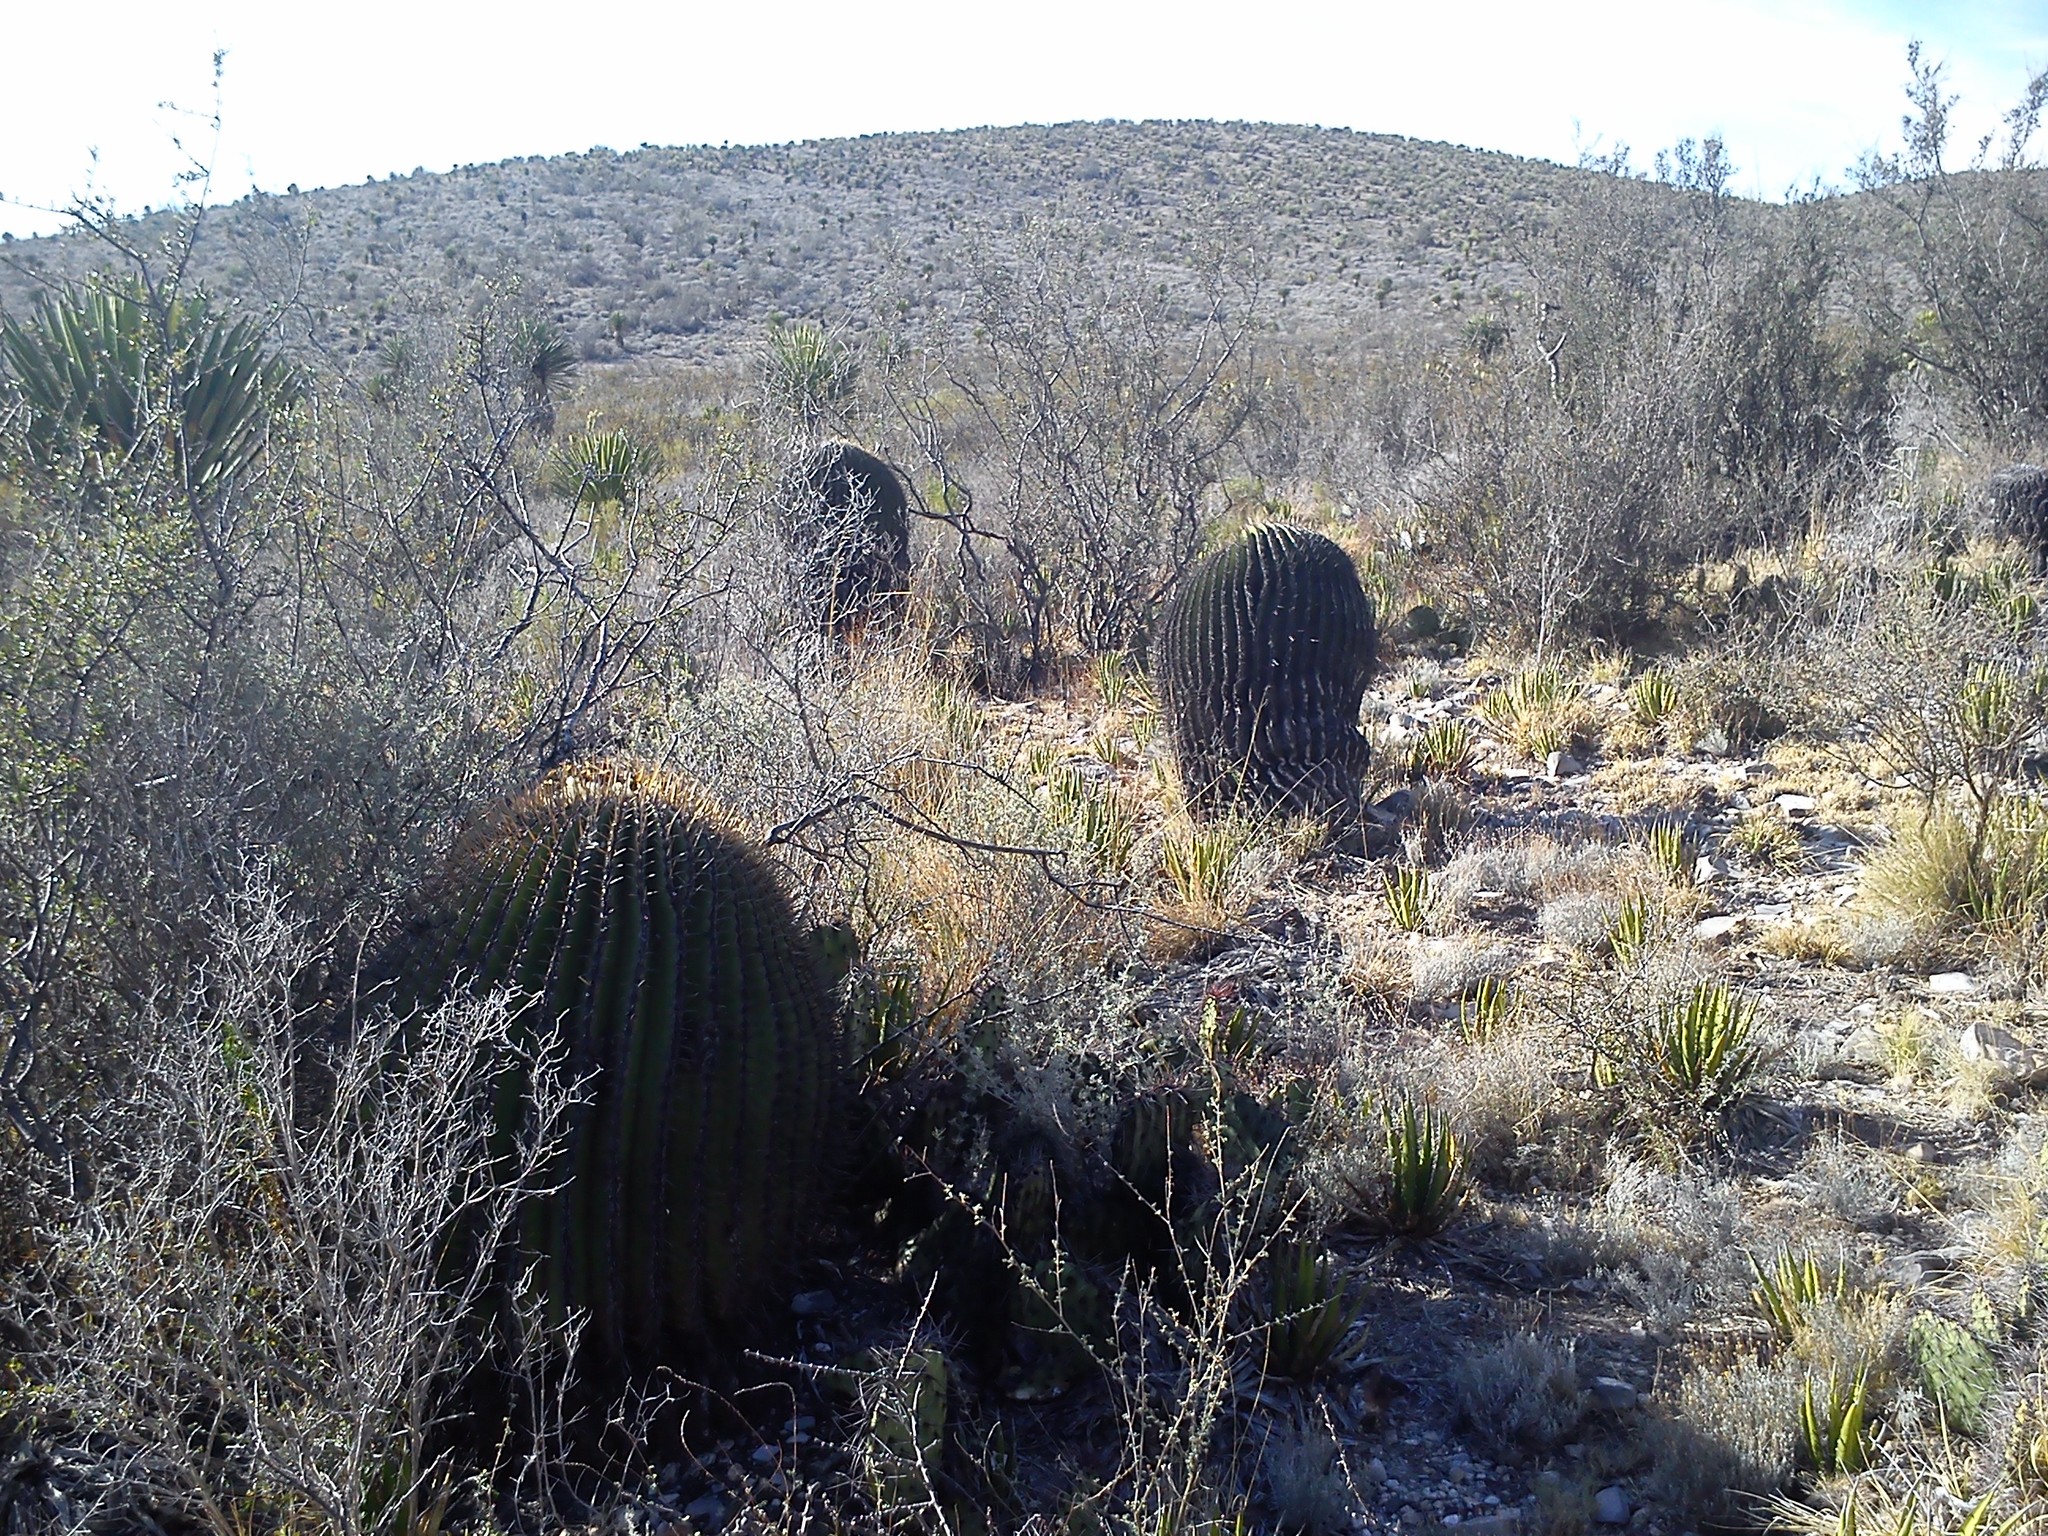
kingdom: Plantae
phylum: Tracheophyta
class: Magnoliopsida
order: Caryophyllales
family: Cactaceae
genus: Echinocactus
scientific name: Echinocactus platyacanthus
